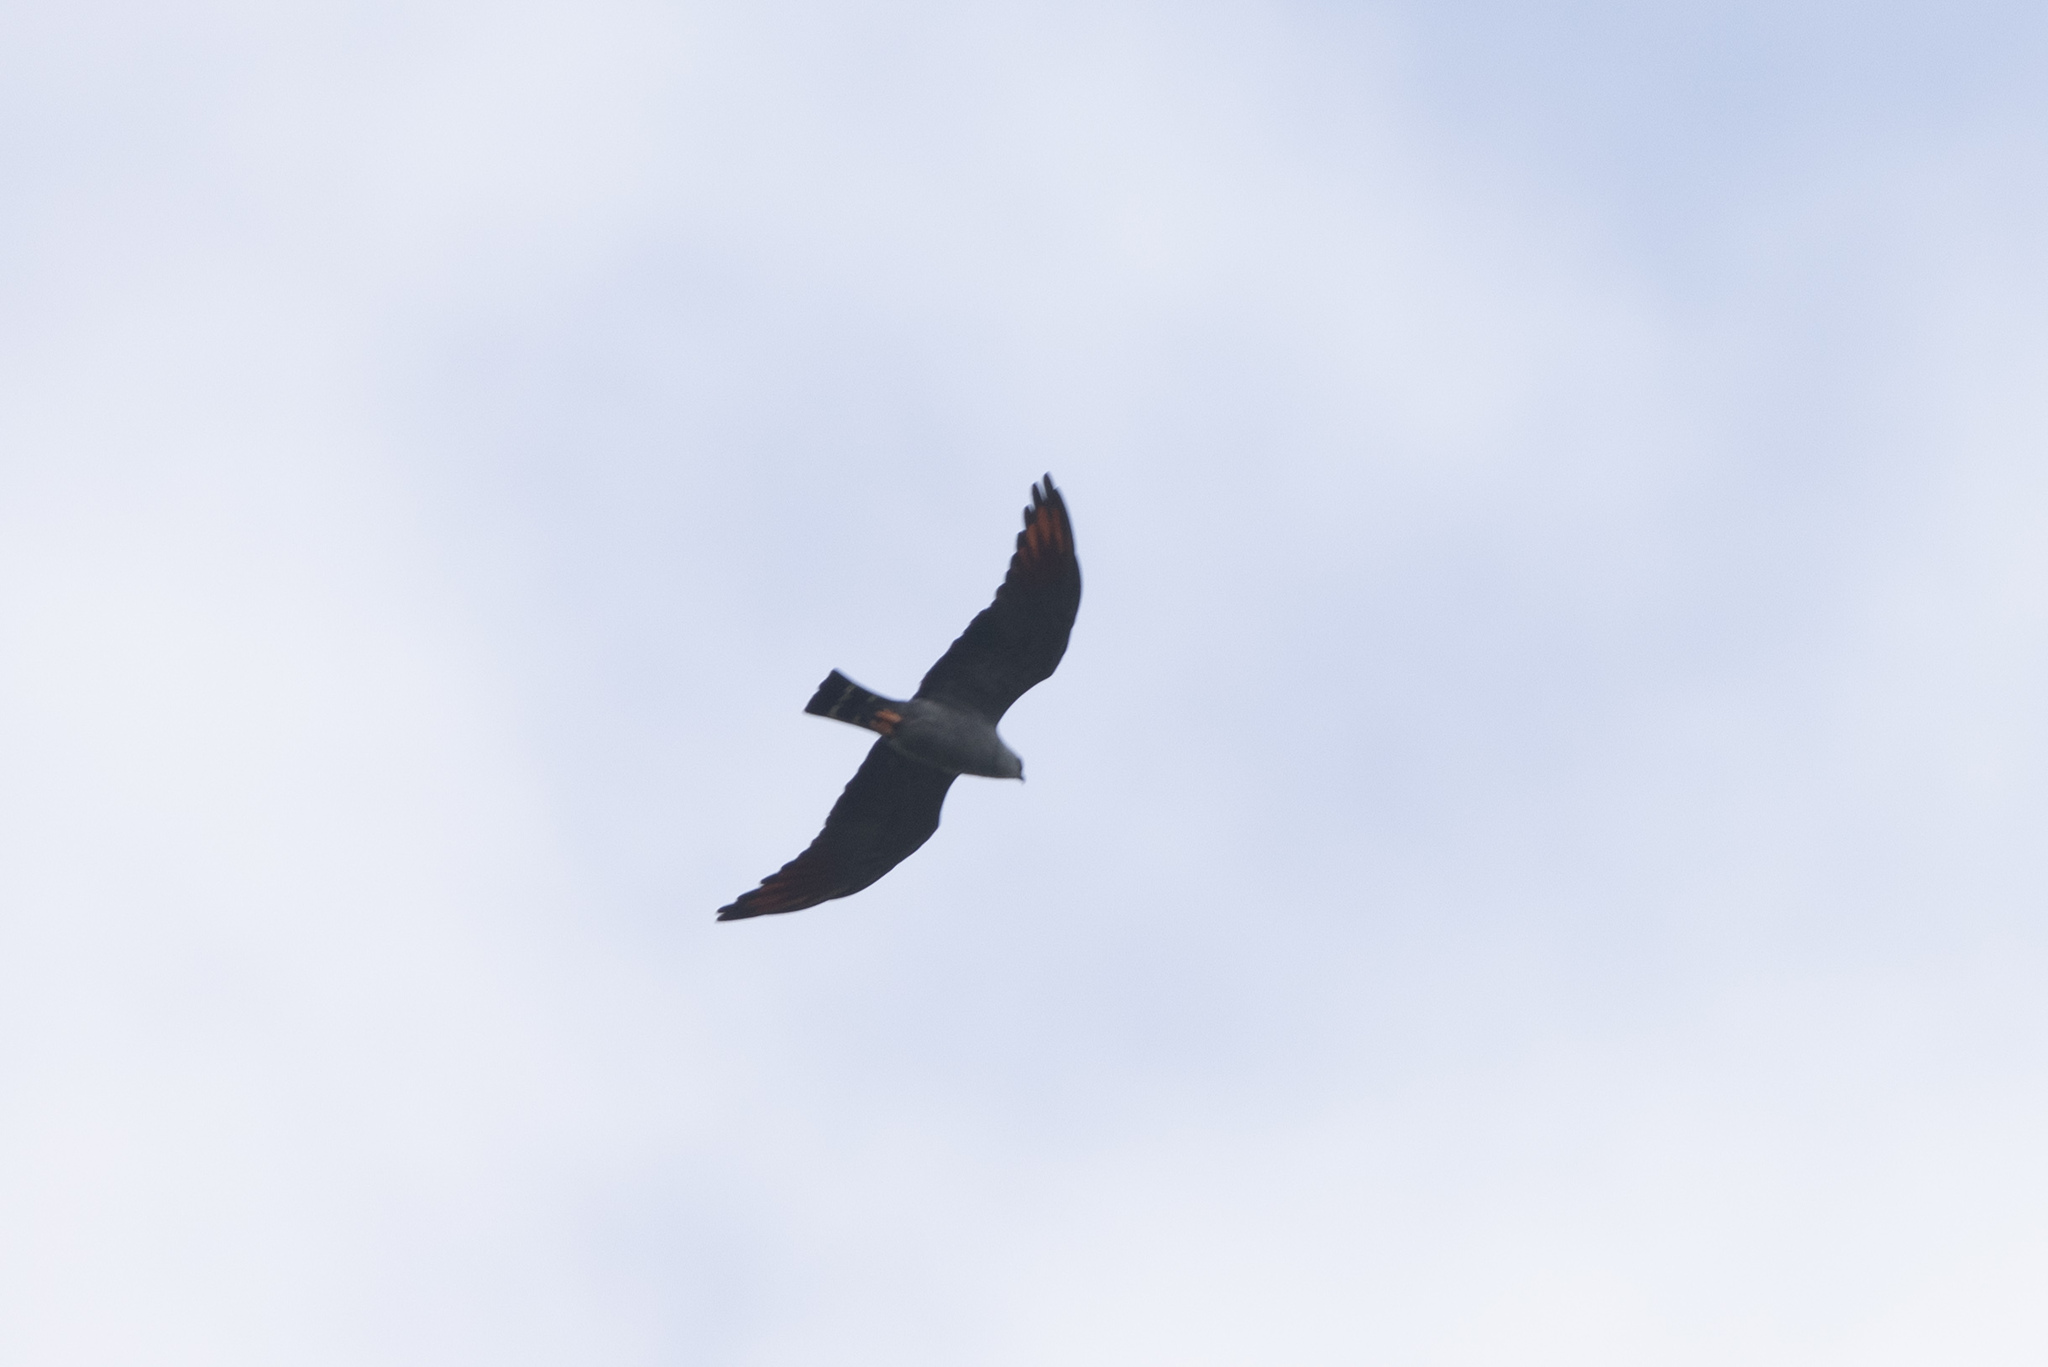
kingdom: Animalia
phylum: Chordata
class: Aves
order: Accipitriformes
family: Accipitridae
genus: Ictinia
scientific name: Ictinia plumbea
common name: Plumbeous kite
